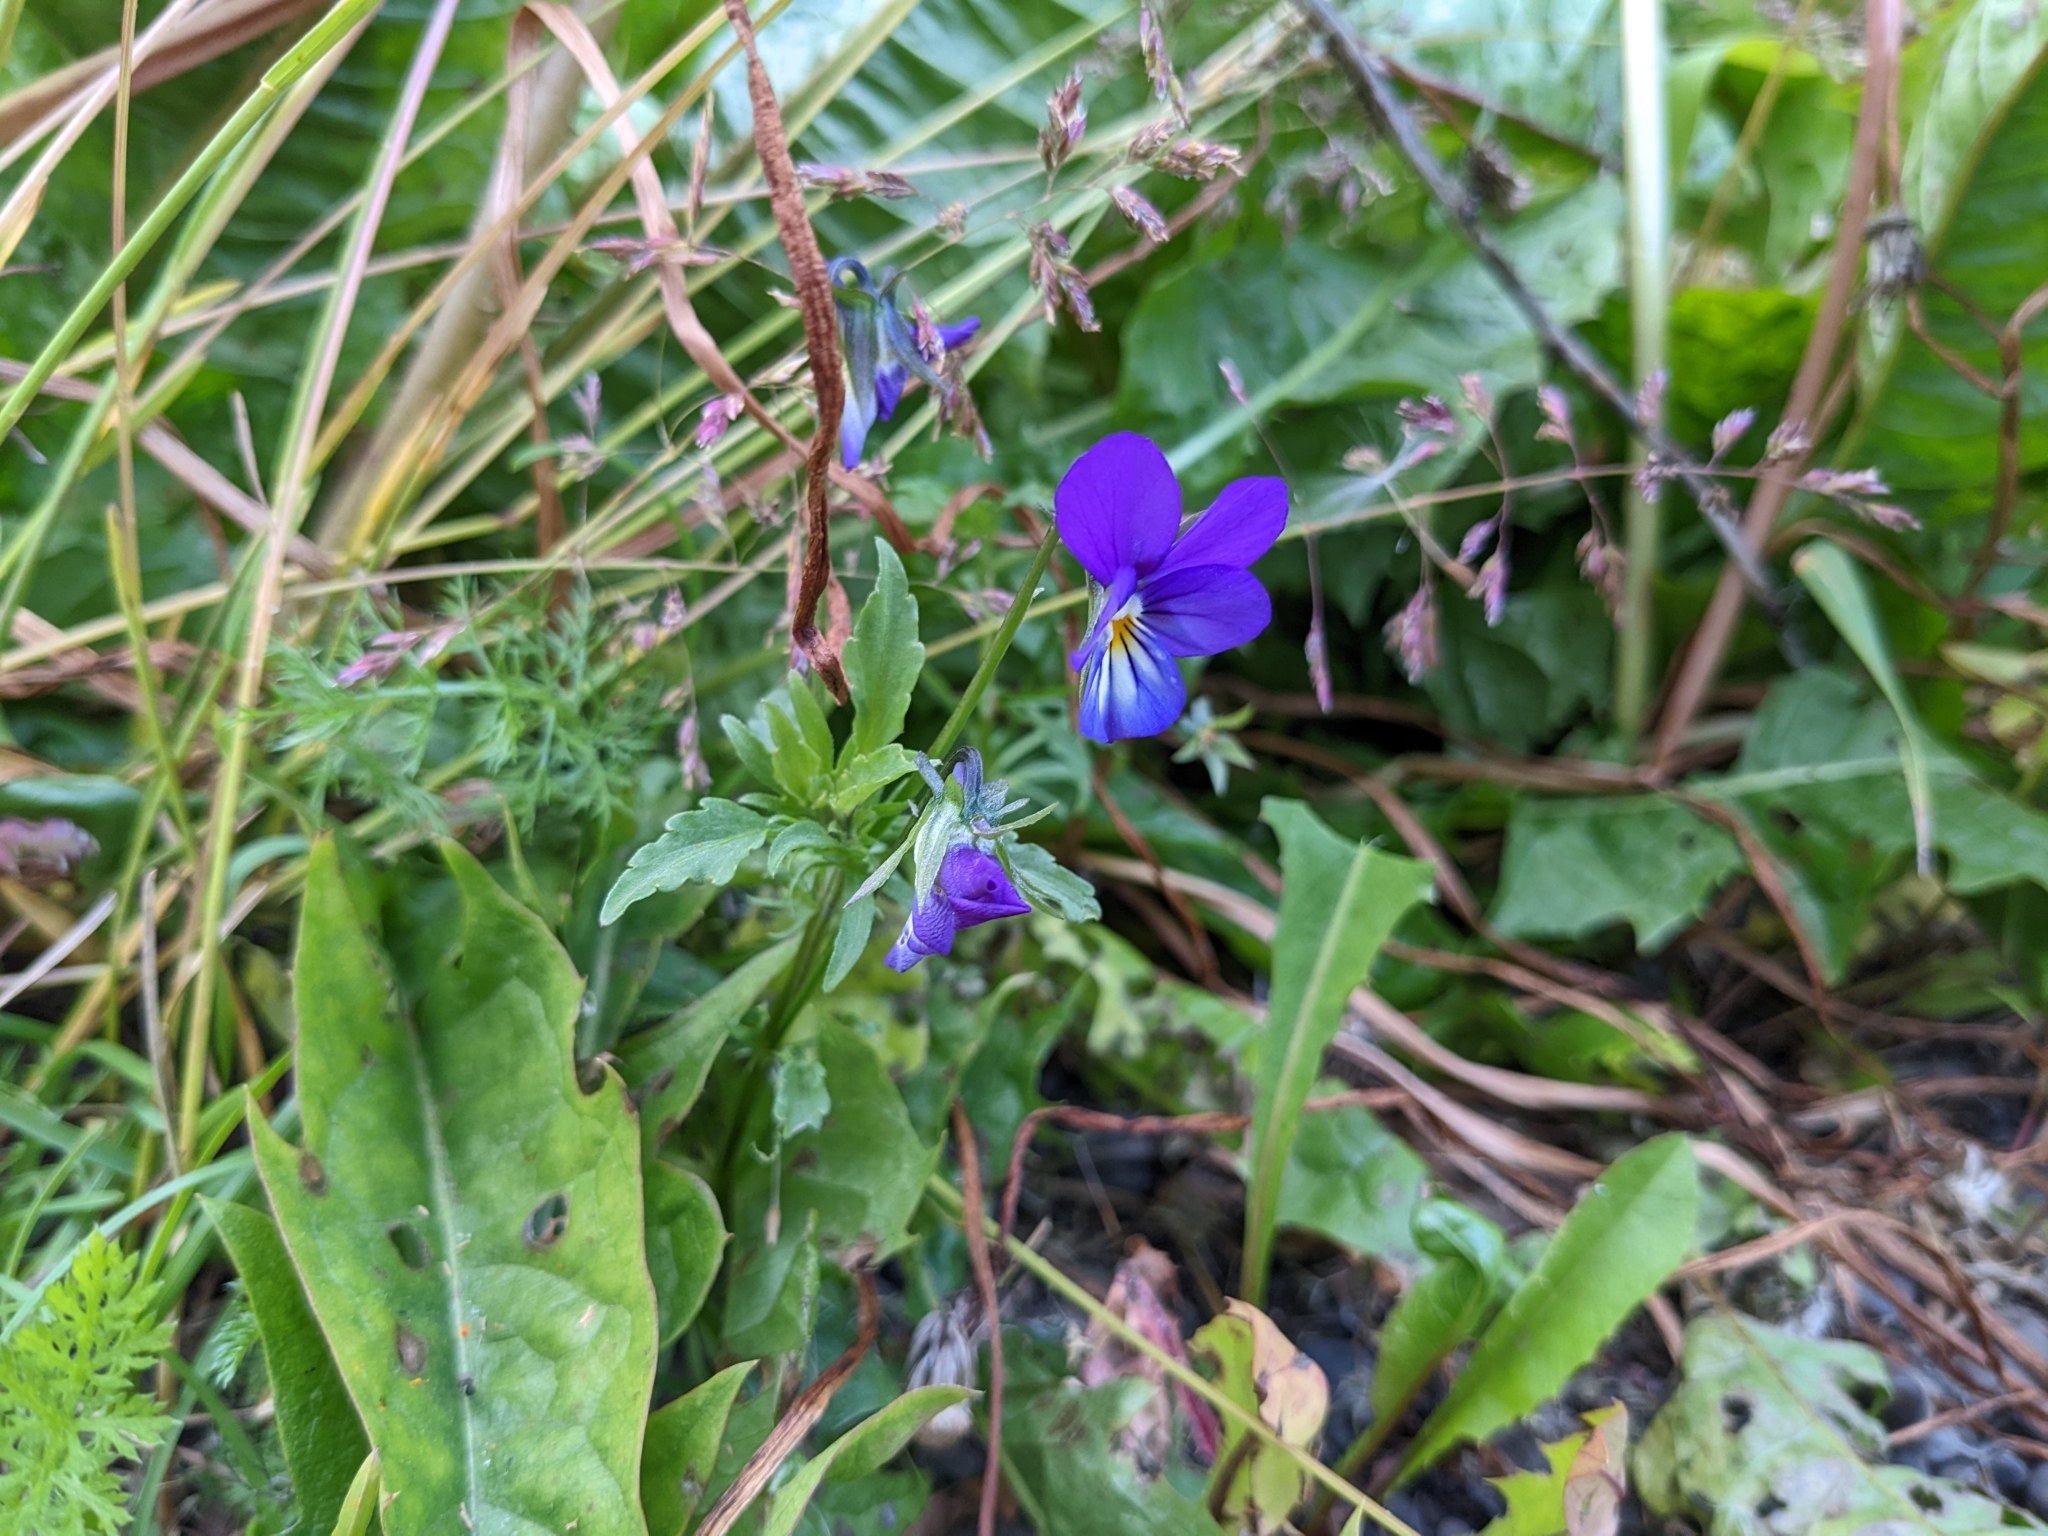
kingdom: Plantae
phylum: Tracheophyta
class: Magnoliopsida
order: Malpighiales
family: Violaceae
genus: Viola
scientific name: Viola tricolor
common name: Pansy
